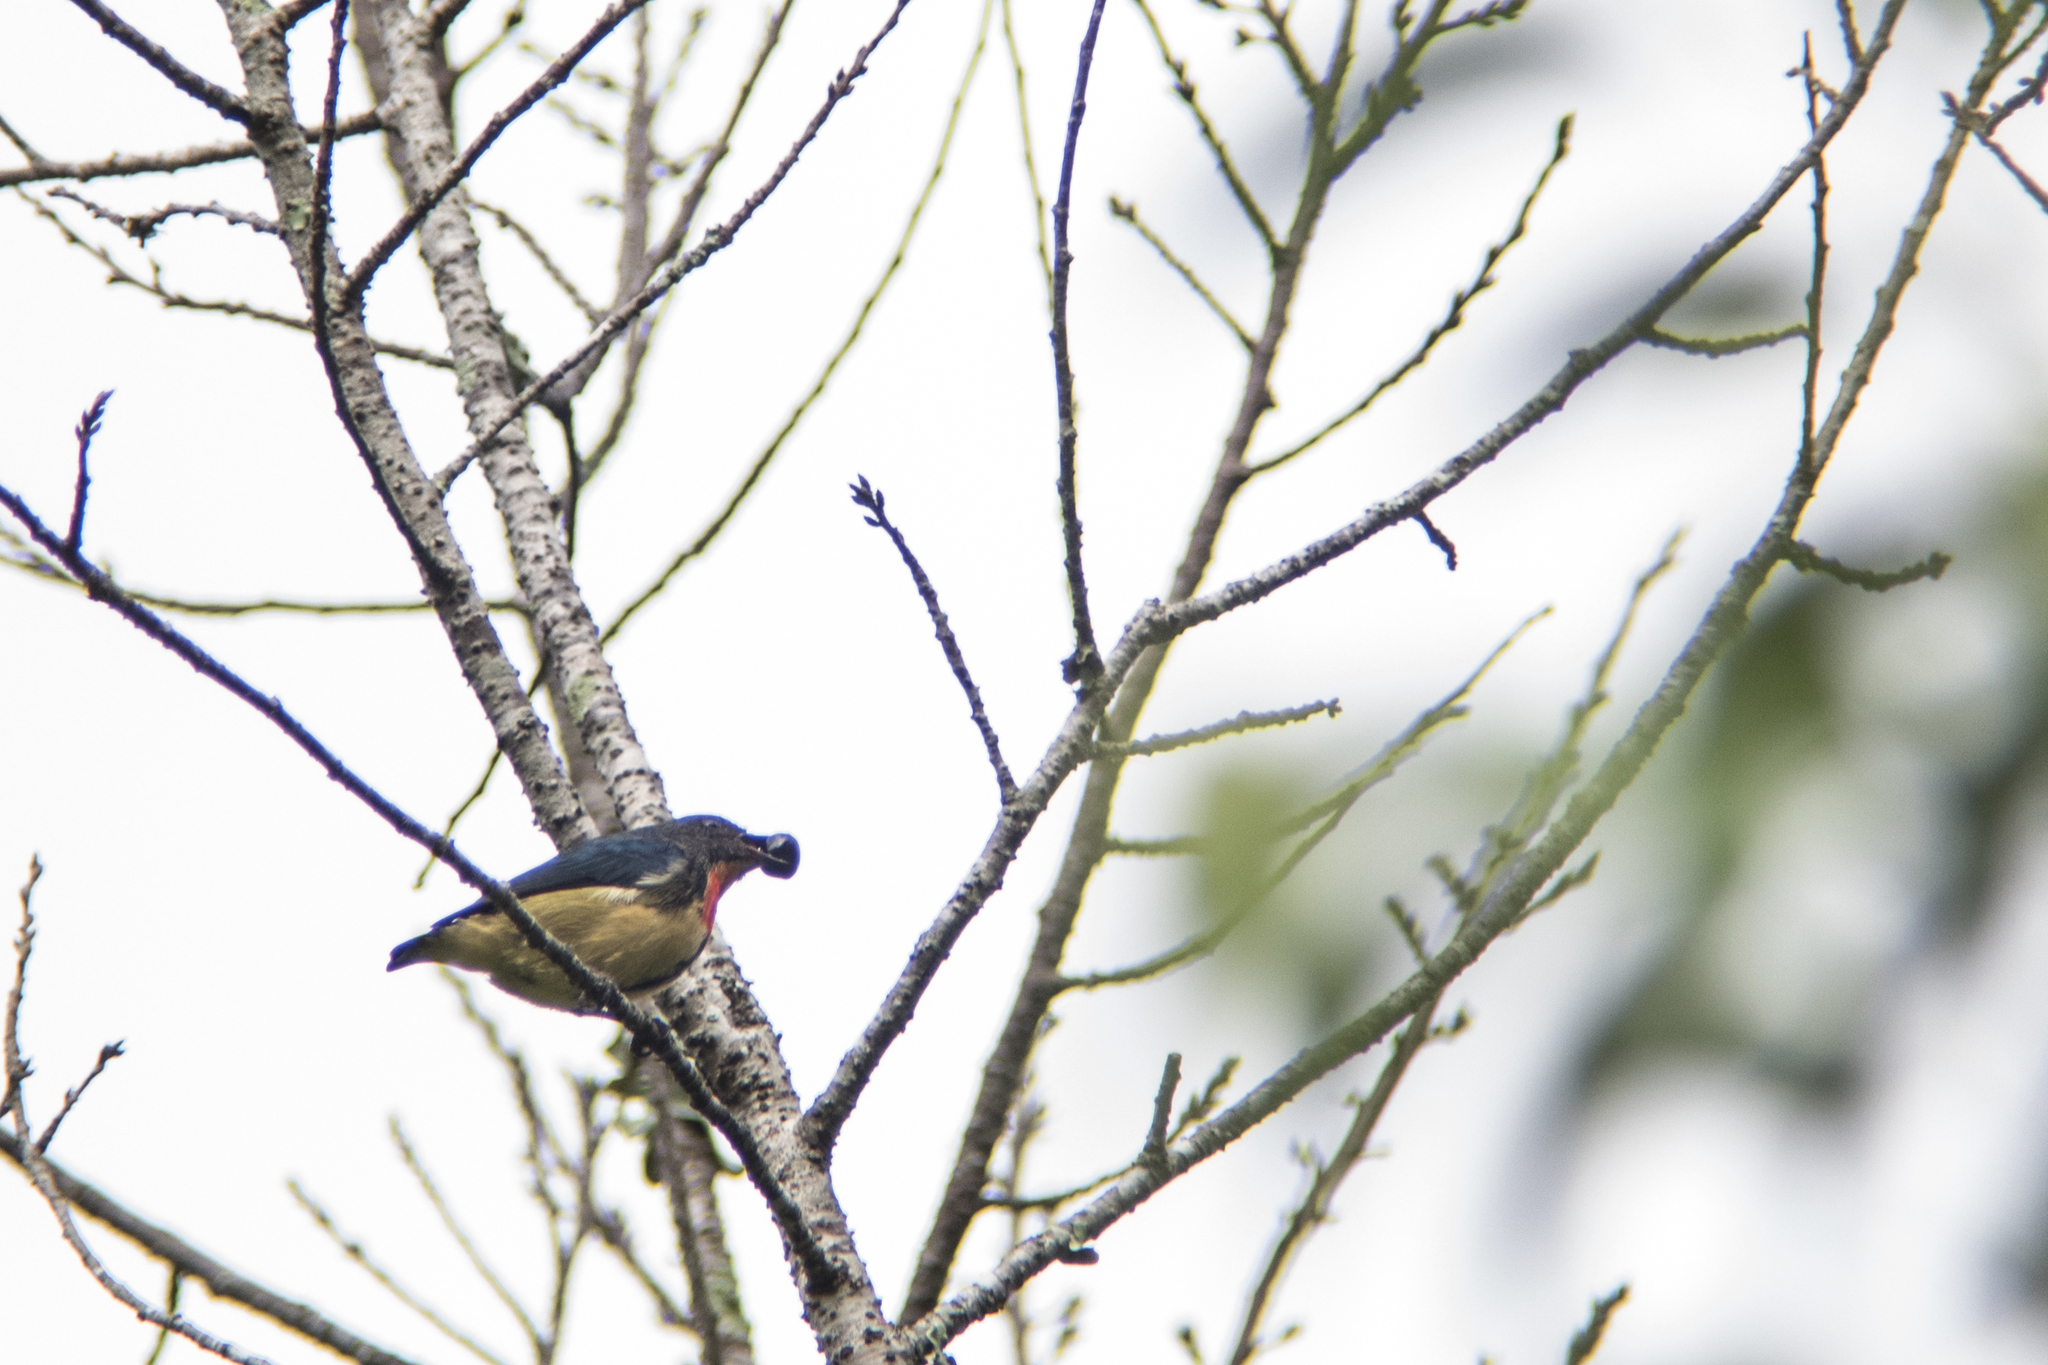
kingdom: Animalia
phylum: Chordata
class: Aves
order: Passeriformes
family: Dicaeidae
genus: Dicaeum
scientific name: Dicaeum ignipectus
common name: Fire-breasted flowerpecker
